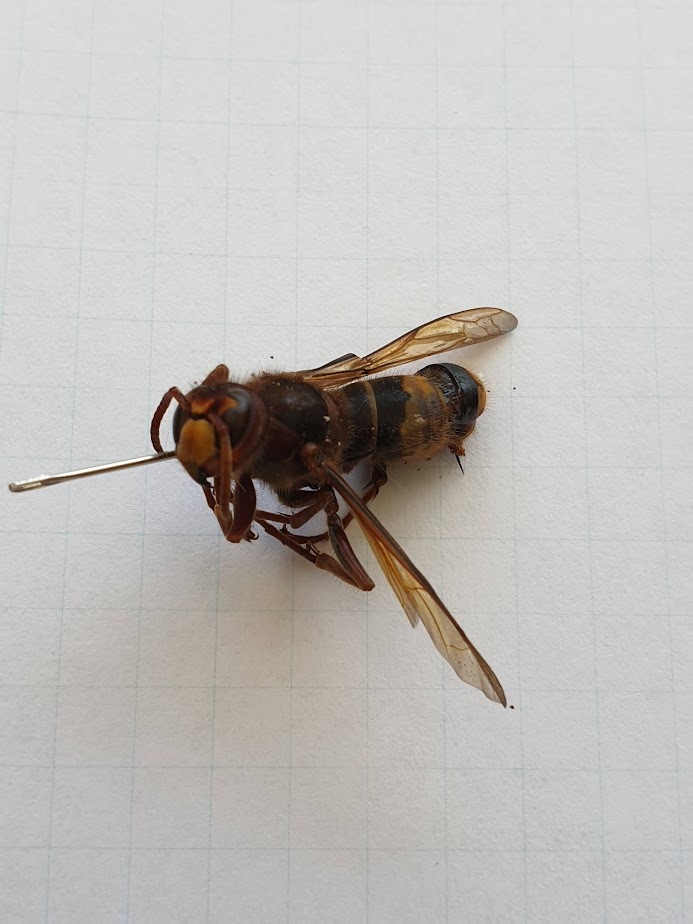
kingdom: Animalia
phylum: Arthropoda
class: Insecta
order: Hymenoptera
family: Vespidae
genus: Vespa
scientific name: Vespa crabro
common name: Hornet
